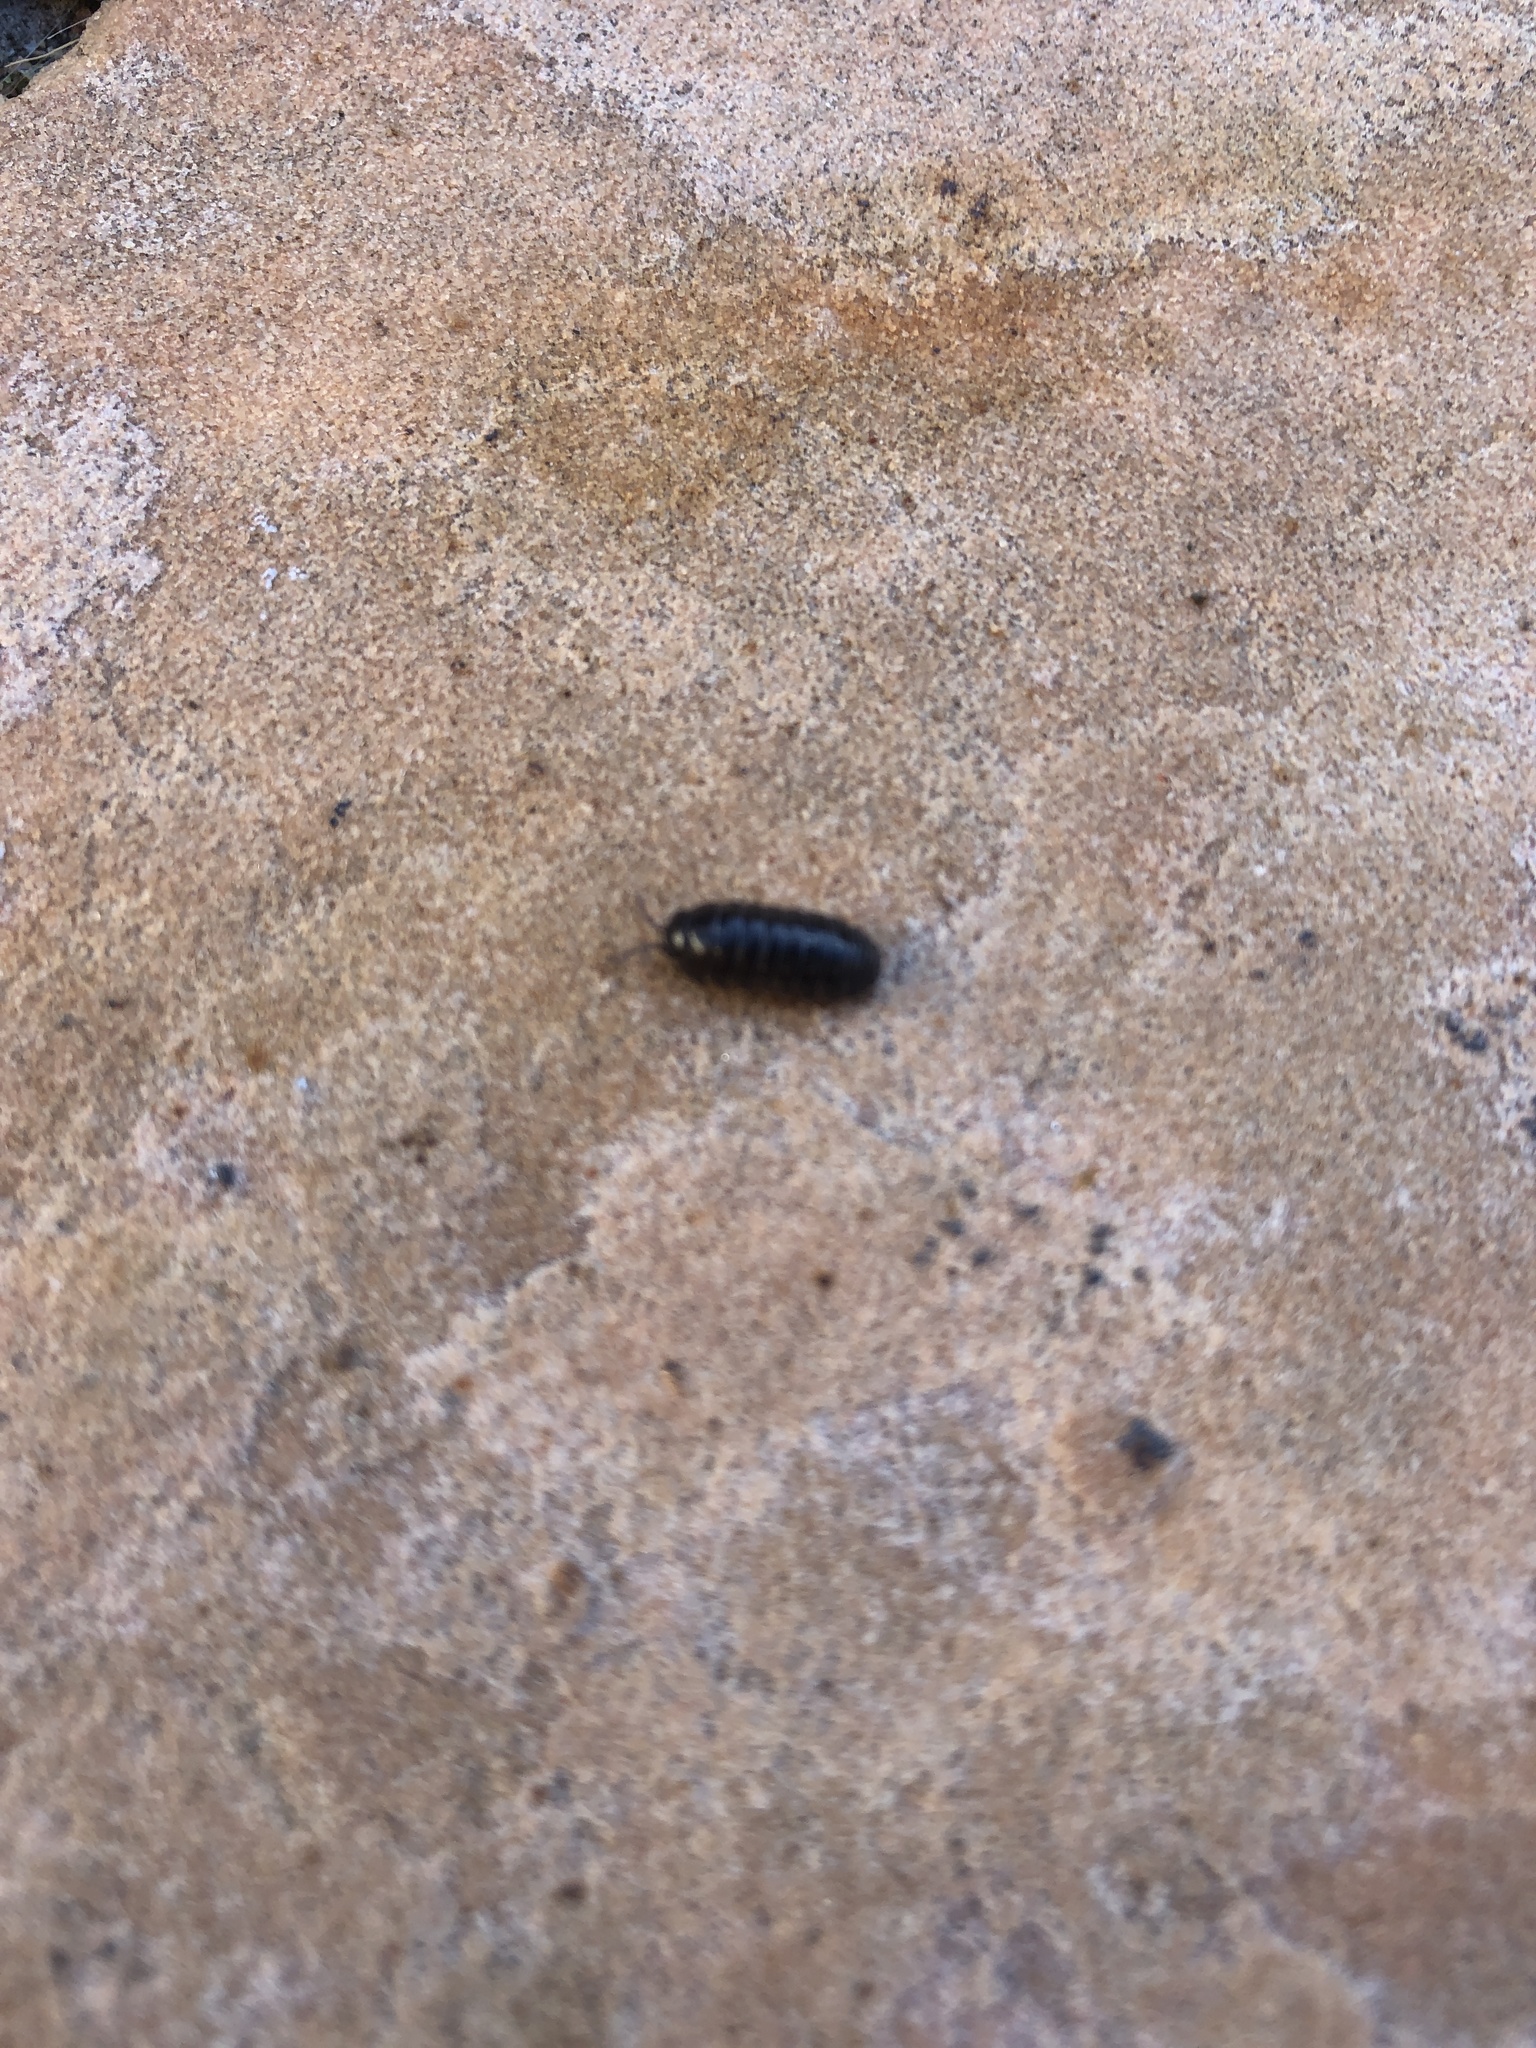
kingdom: Animalia
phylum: Arthropoda
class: Malacostraca
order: Isopoda
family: Armadillidiidae
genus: Armadillidium
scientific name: Armadillidium vulgare
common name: Common pill woodlouse
